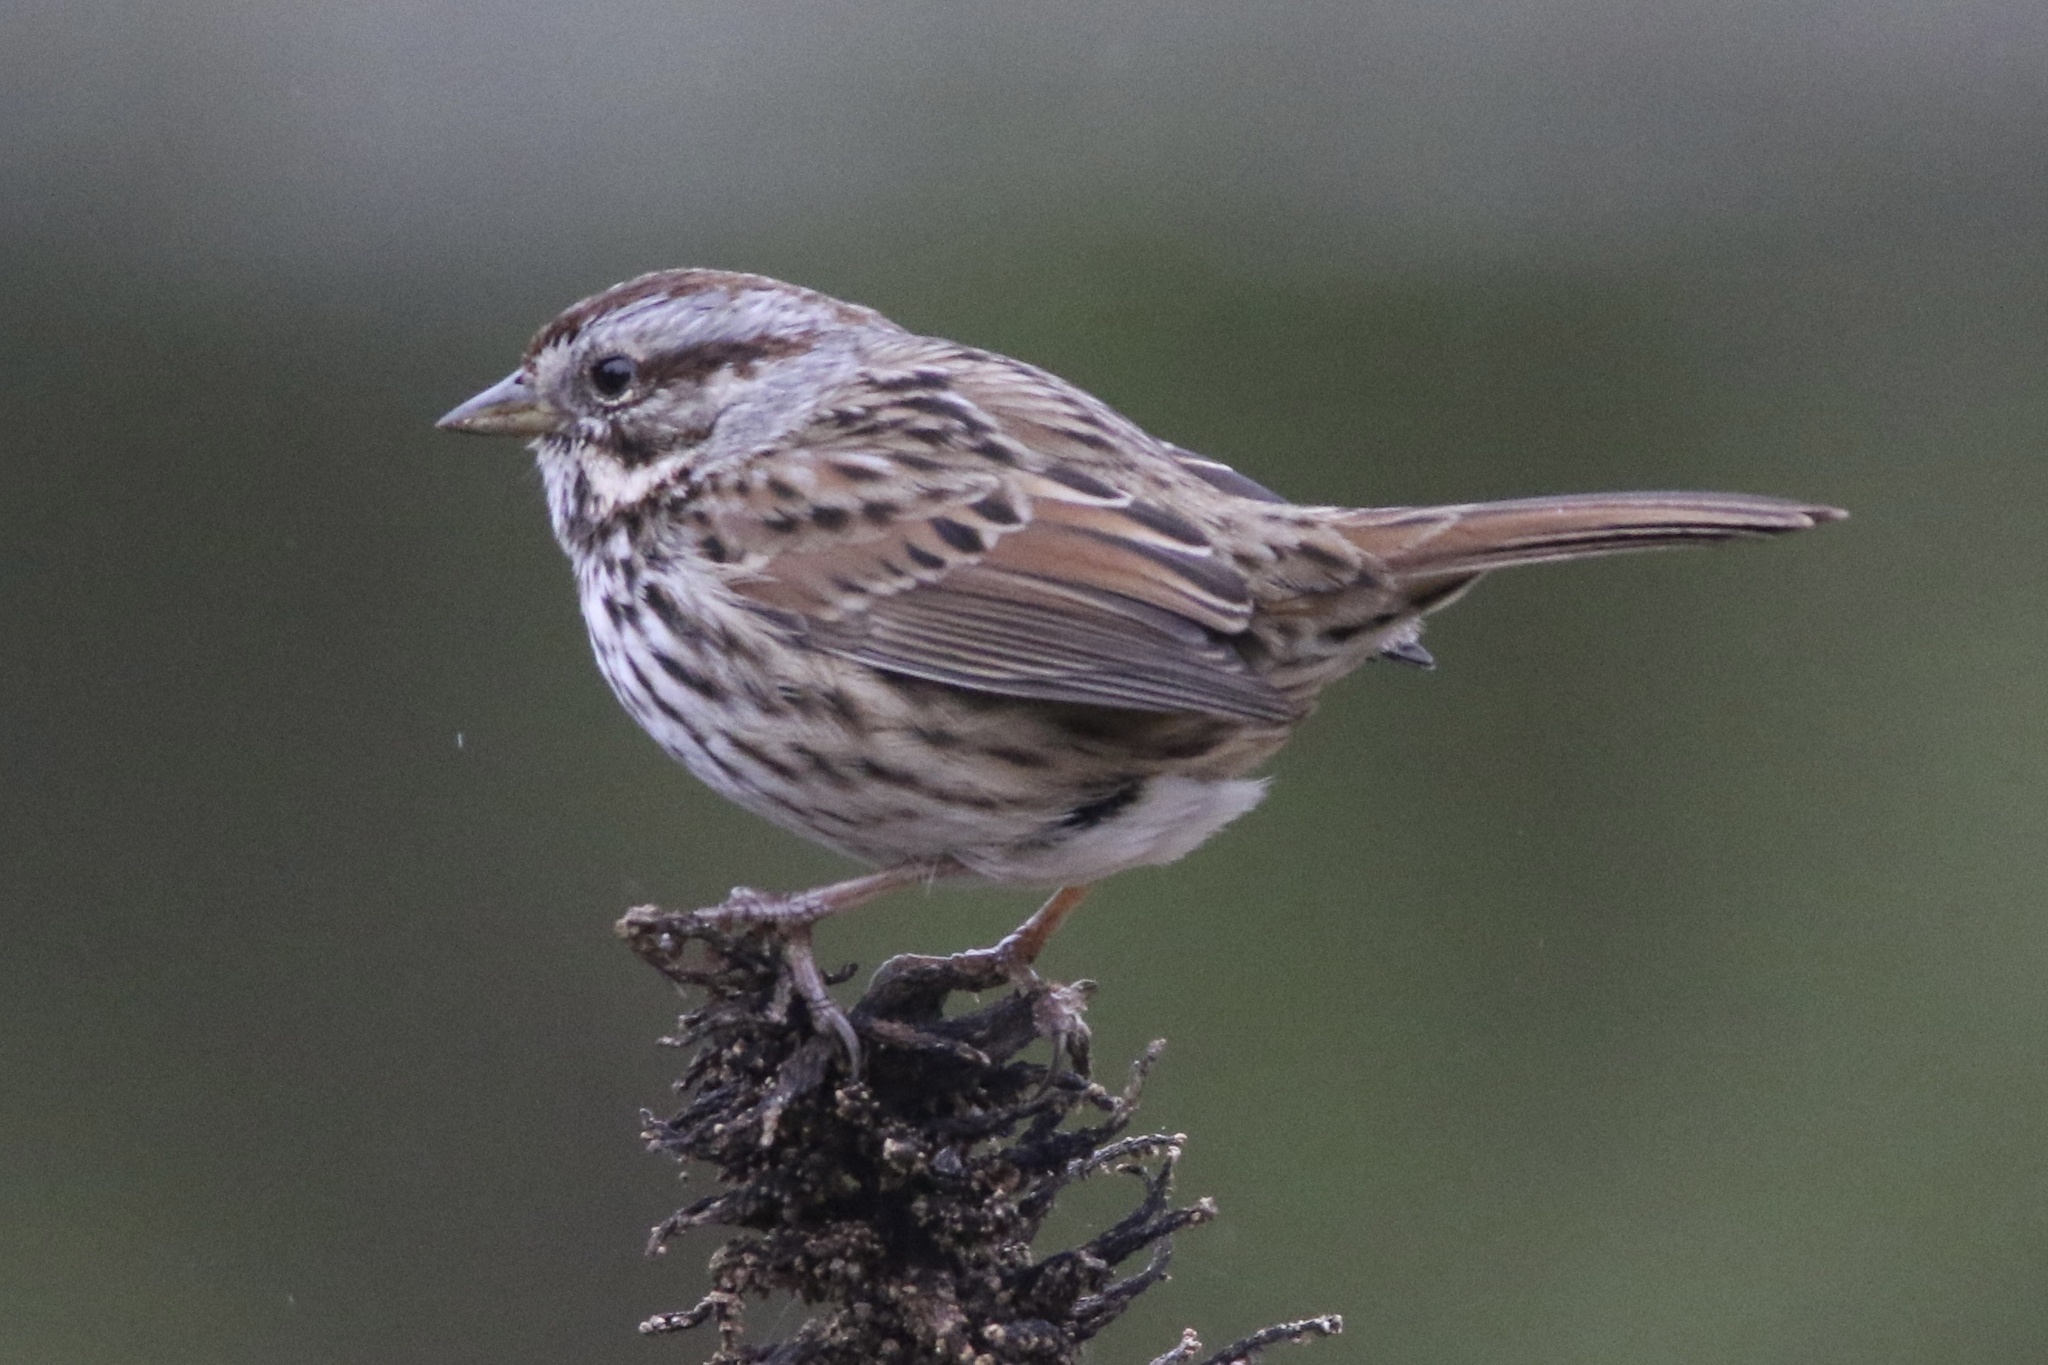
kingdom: Animalia
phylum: Chordata
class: Aves
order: Passeriformes
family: Passerellidae
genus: Melospiza
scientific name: Melospiza melodia
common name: Song sparrow
